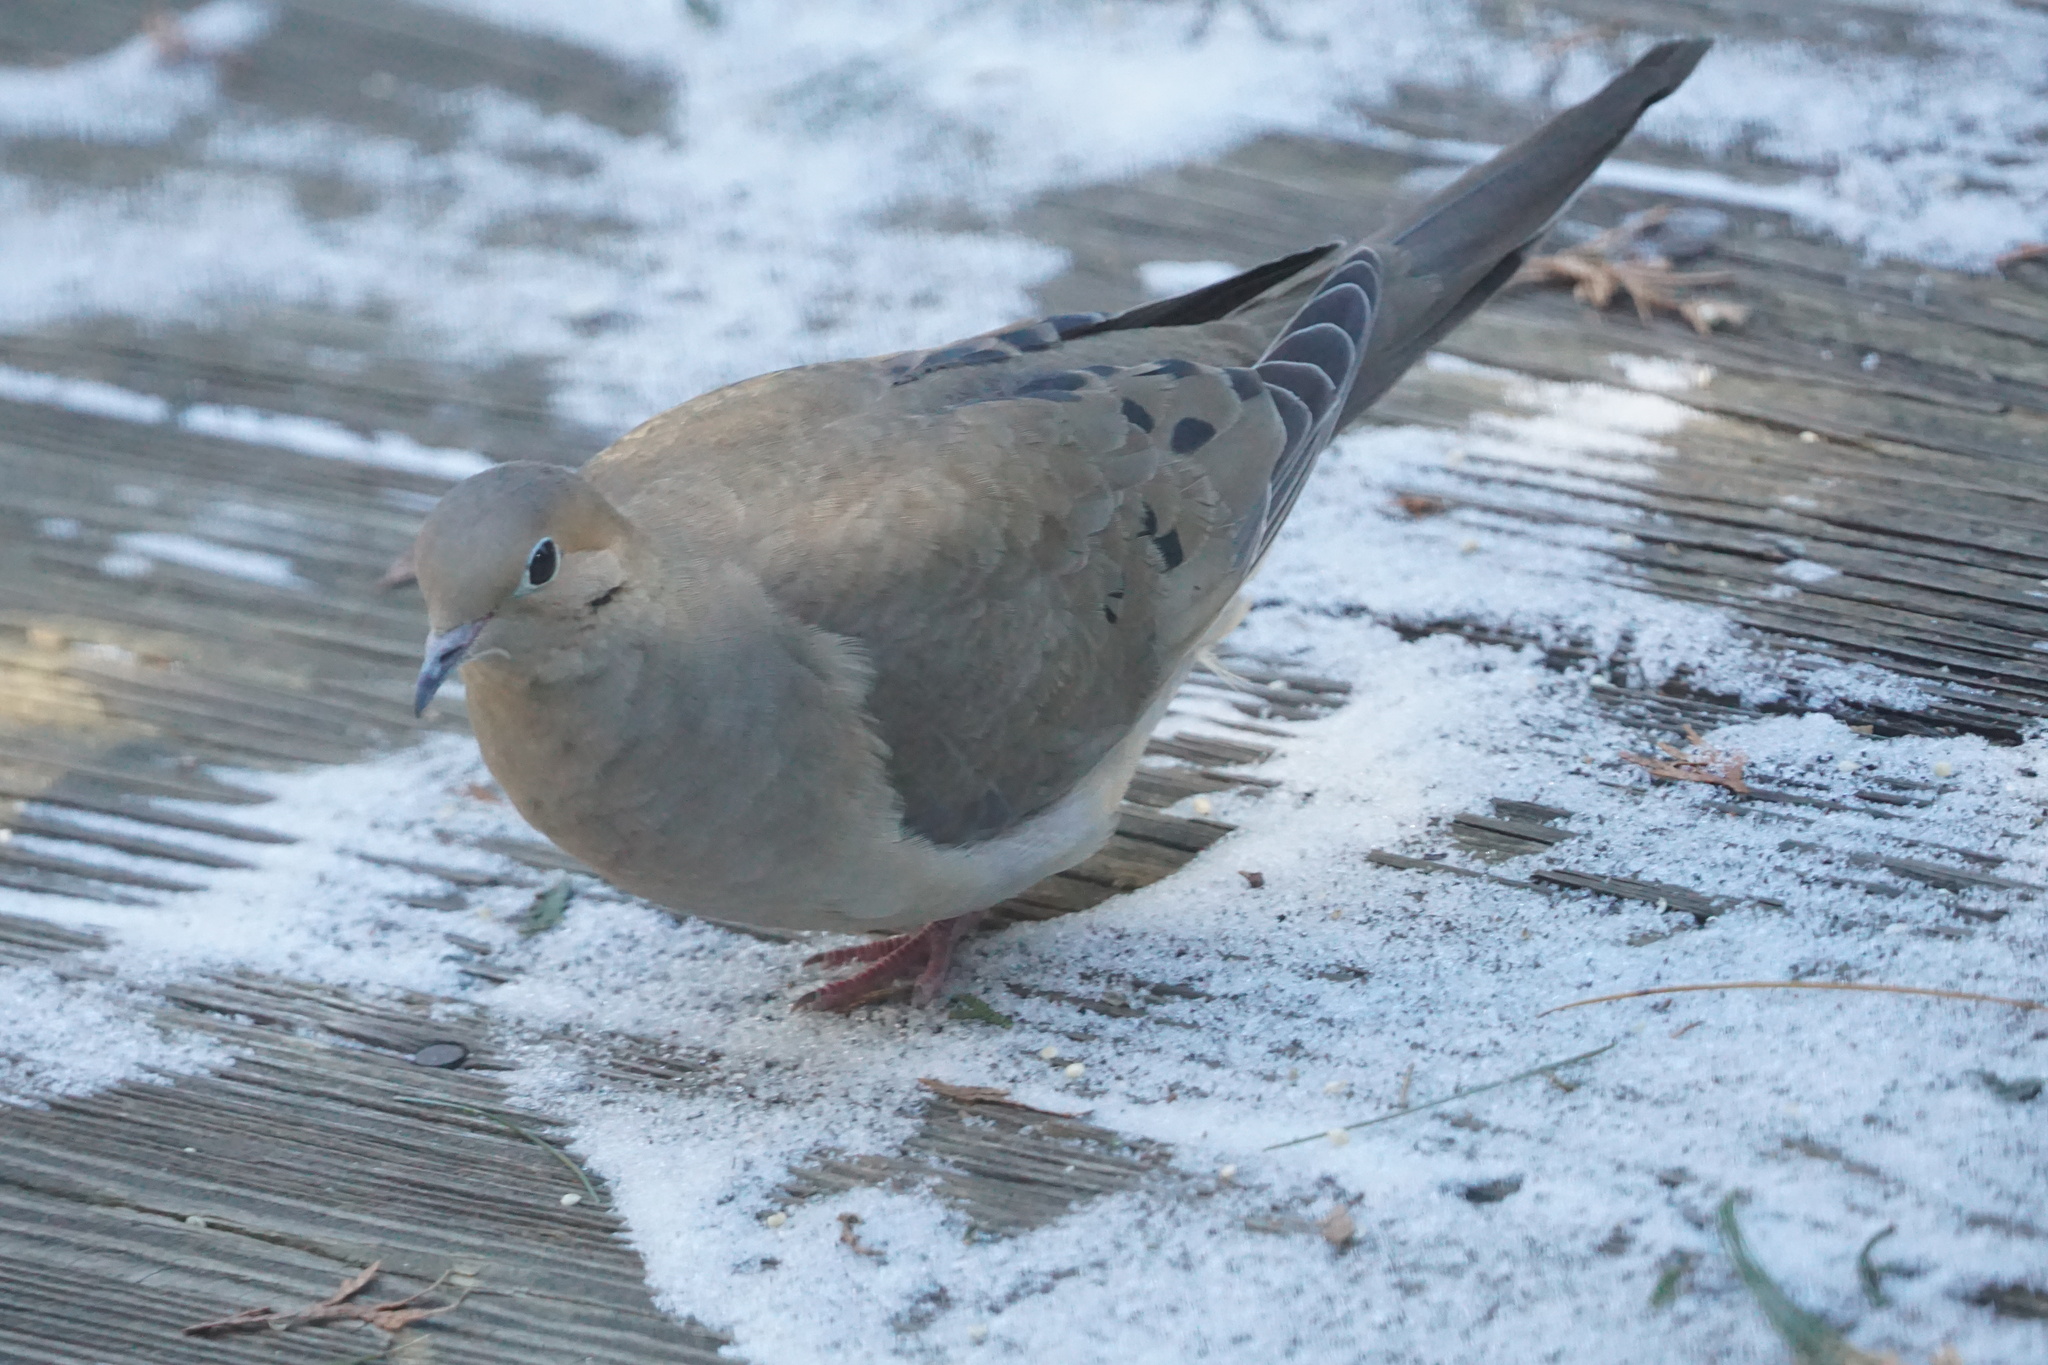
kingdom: Animalia
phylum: Chordata
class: Aves
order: Columbiformes
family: Columbidae
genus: Zenaida
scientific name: Zenaida macroura
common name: Mourning dove
